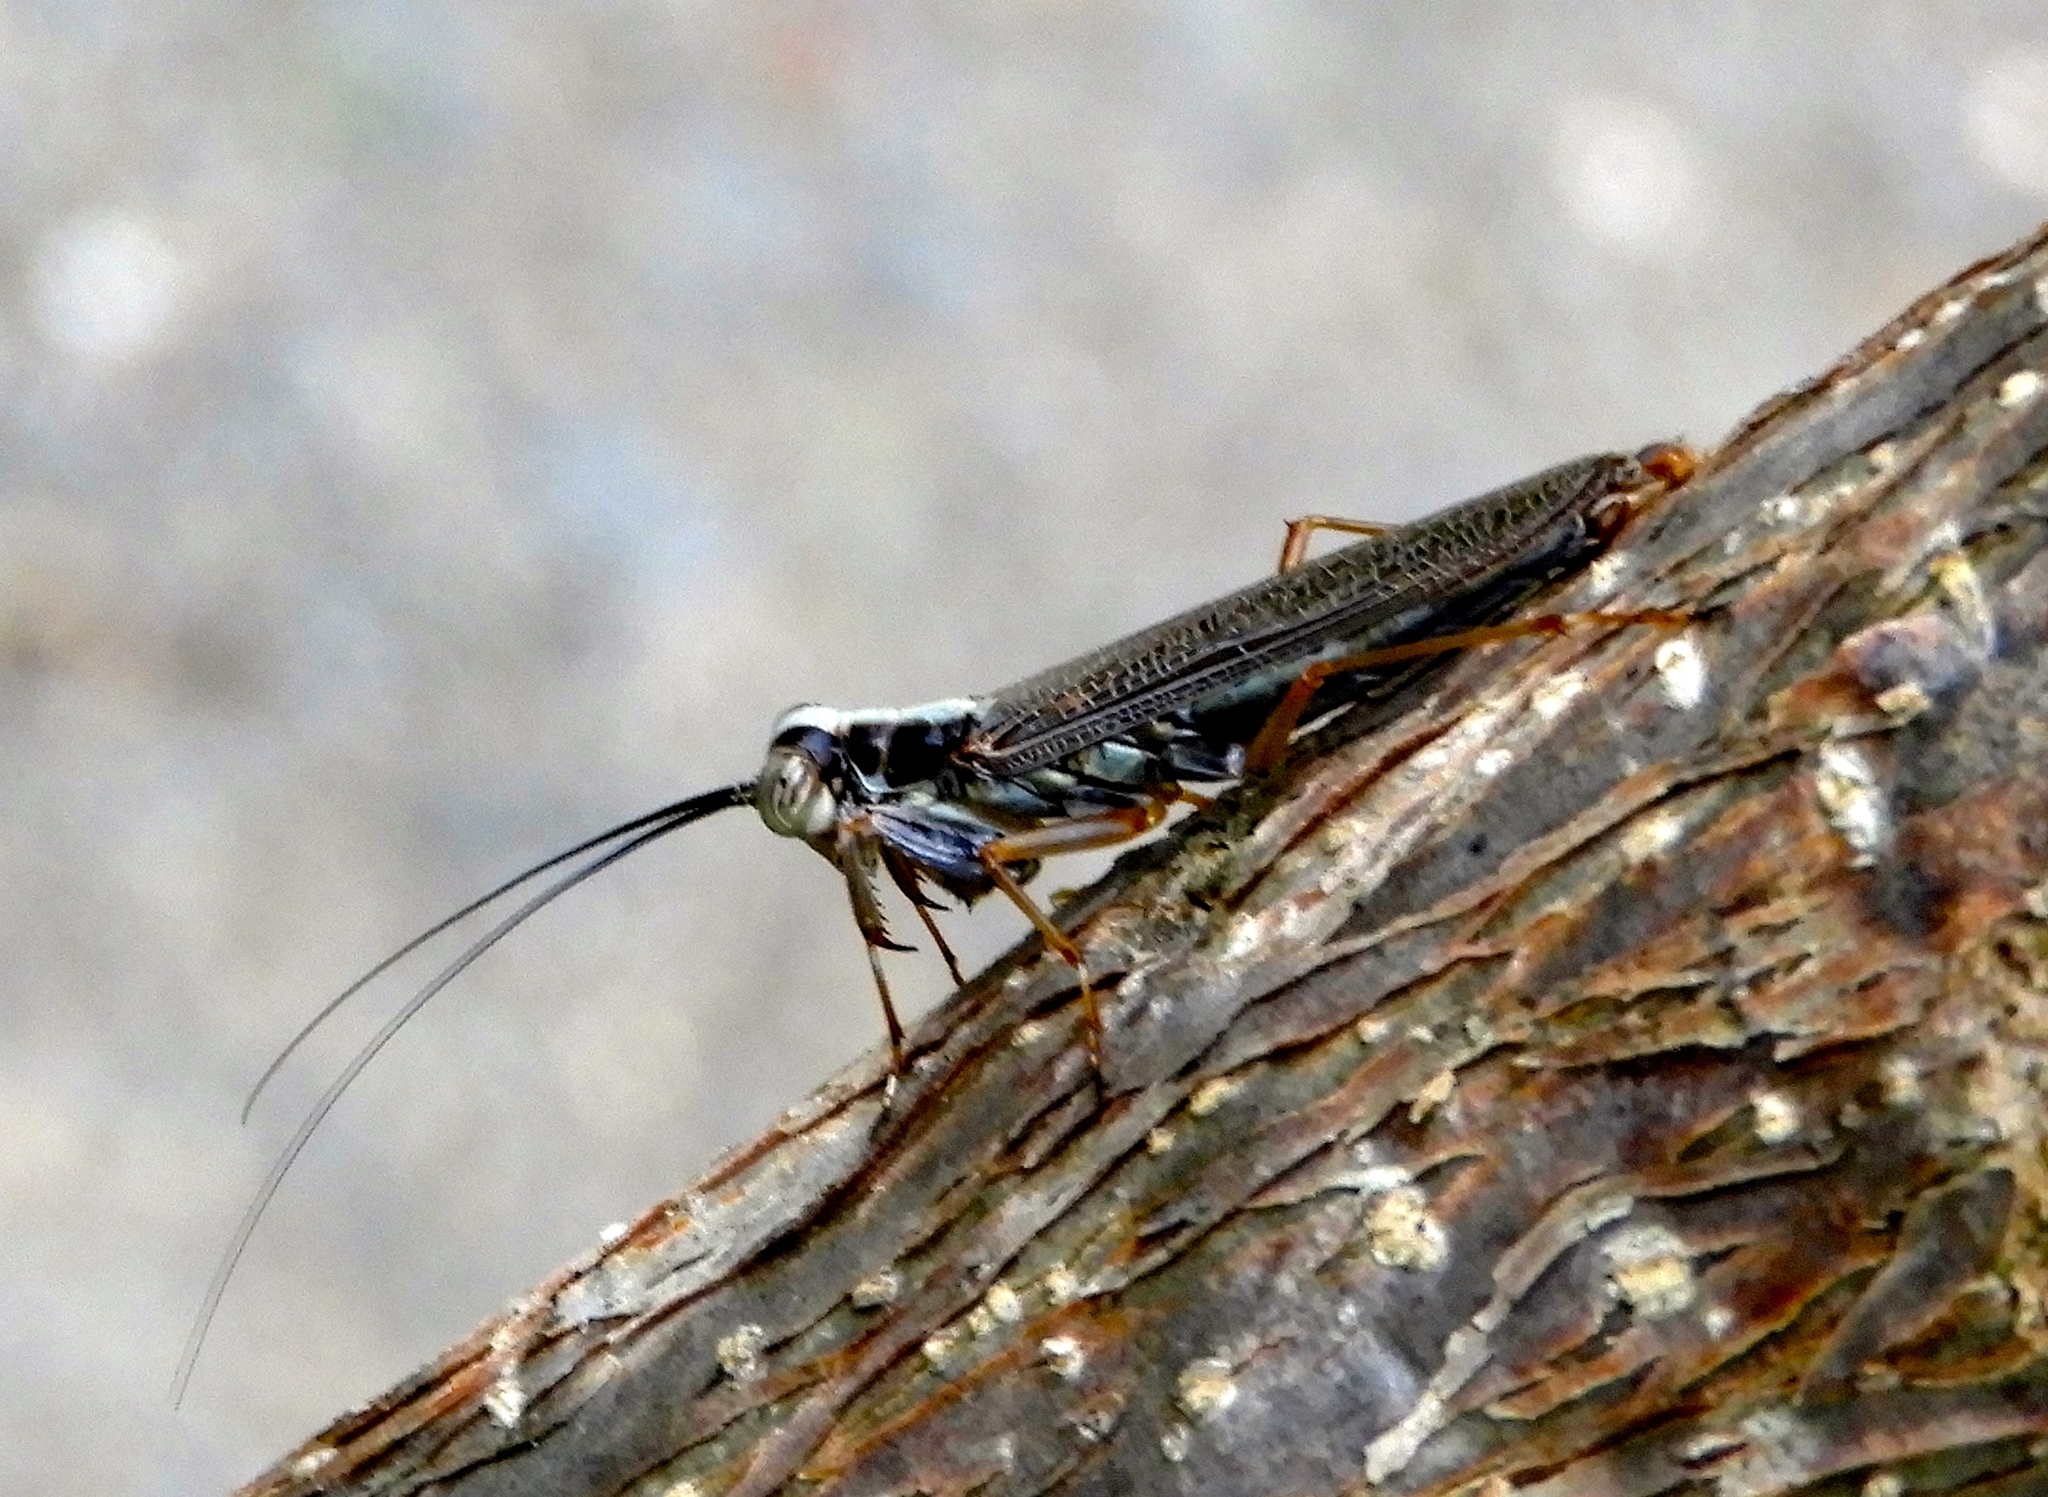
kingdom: Animalia
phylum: Arthropoda
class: Insecta
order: Mantodea
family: Mantoididae
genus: Mantoida
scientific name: Mantoida maya
